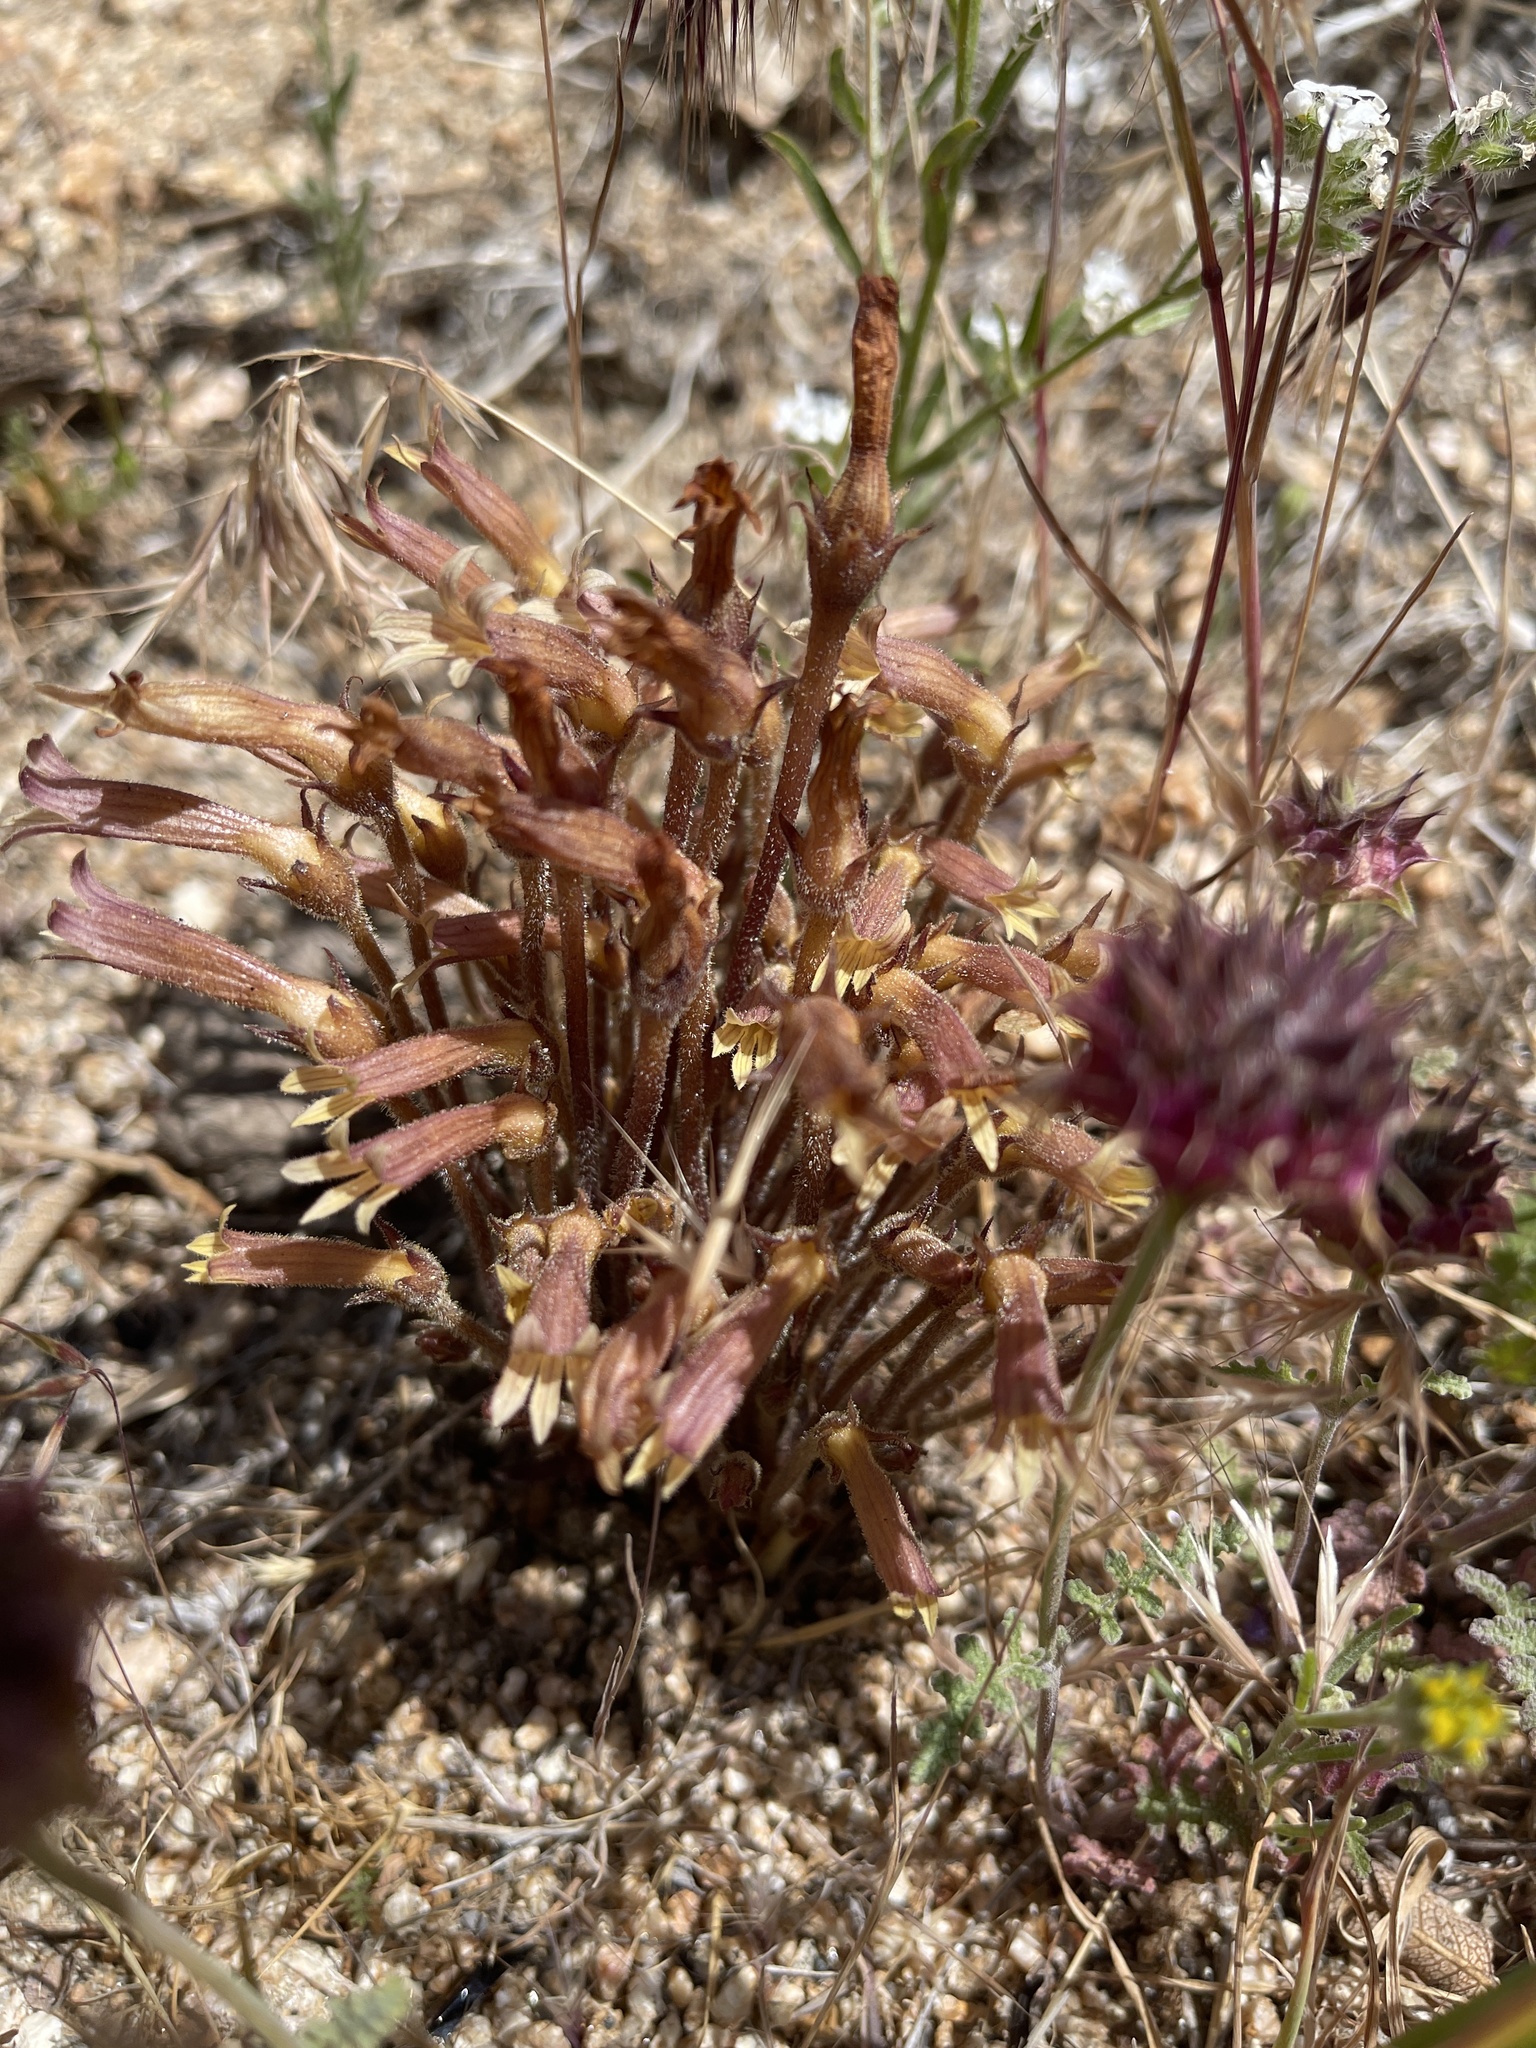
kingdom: Plantae
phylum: Tracheophyta
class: Magnoliopsida
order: Lamiales
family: Orobanchaceae
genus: Aphyllon
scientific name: Aphyllon franciscanum
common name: San francisco broomrape
